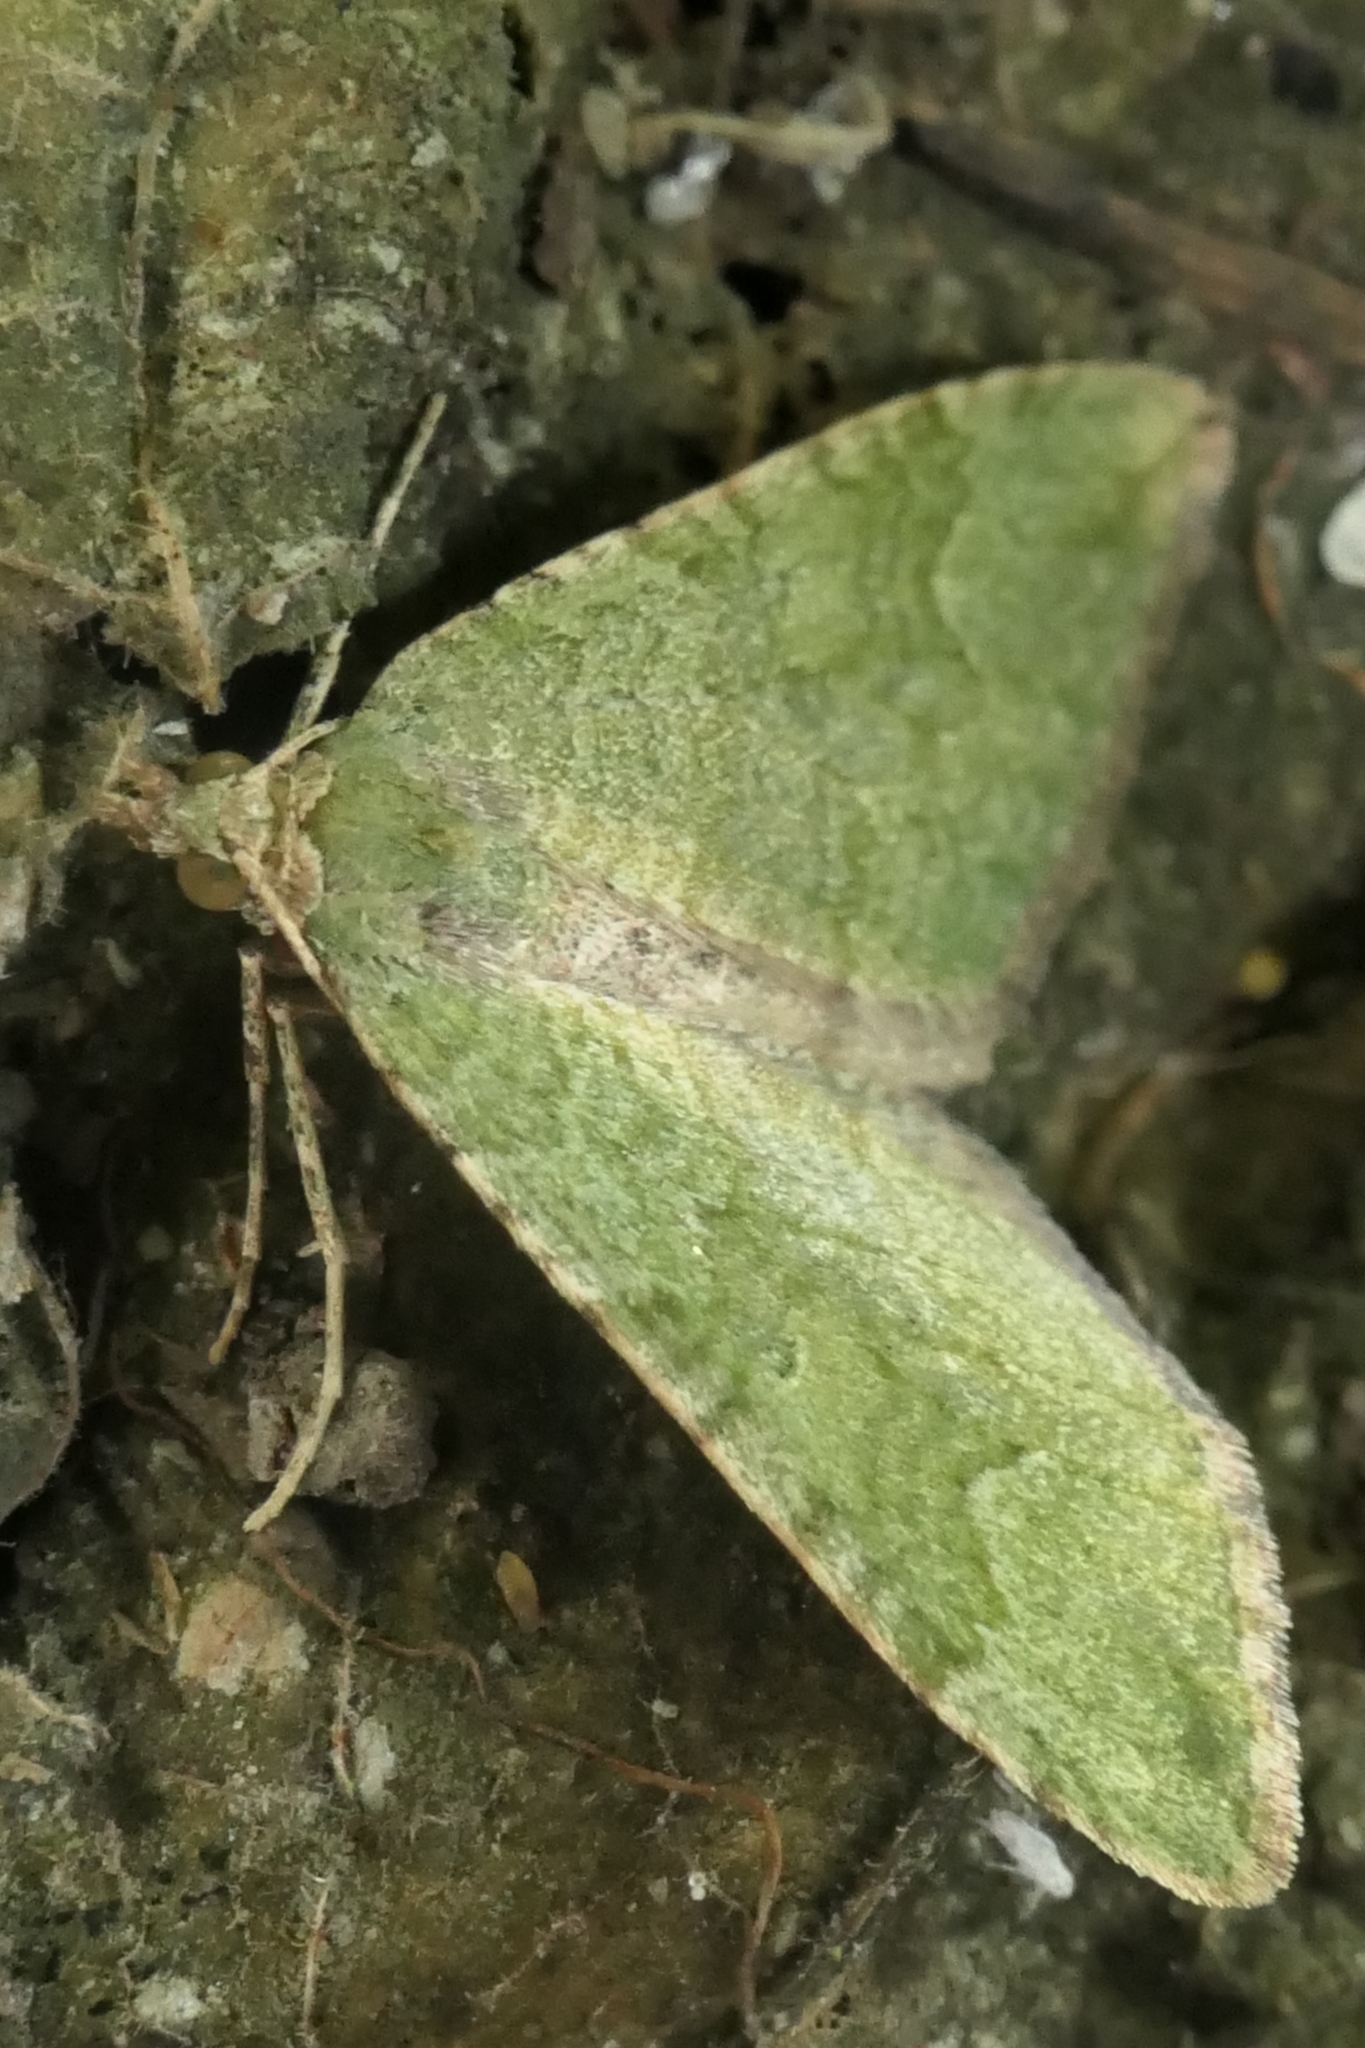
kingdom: Animalia
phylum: Arthropoda
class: Insecta
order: Lepidoptera
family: Geometridae
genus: Epyaxa
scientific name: Epyaxa rosearia
